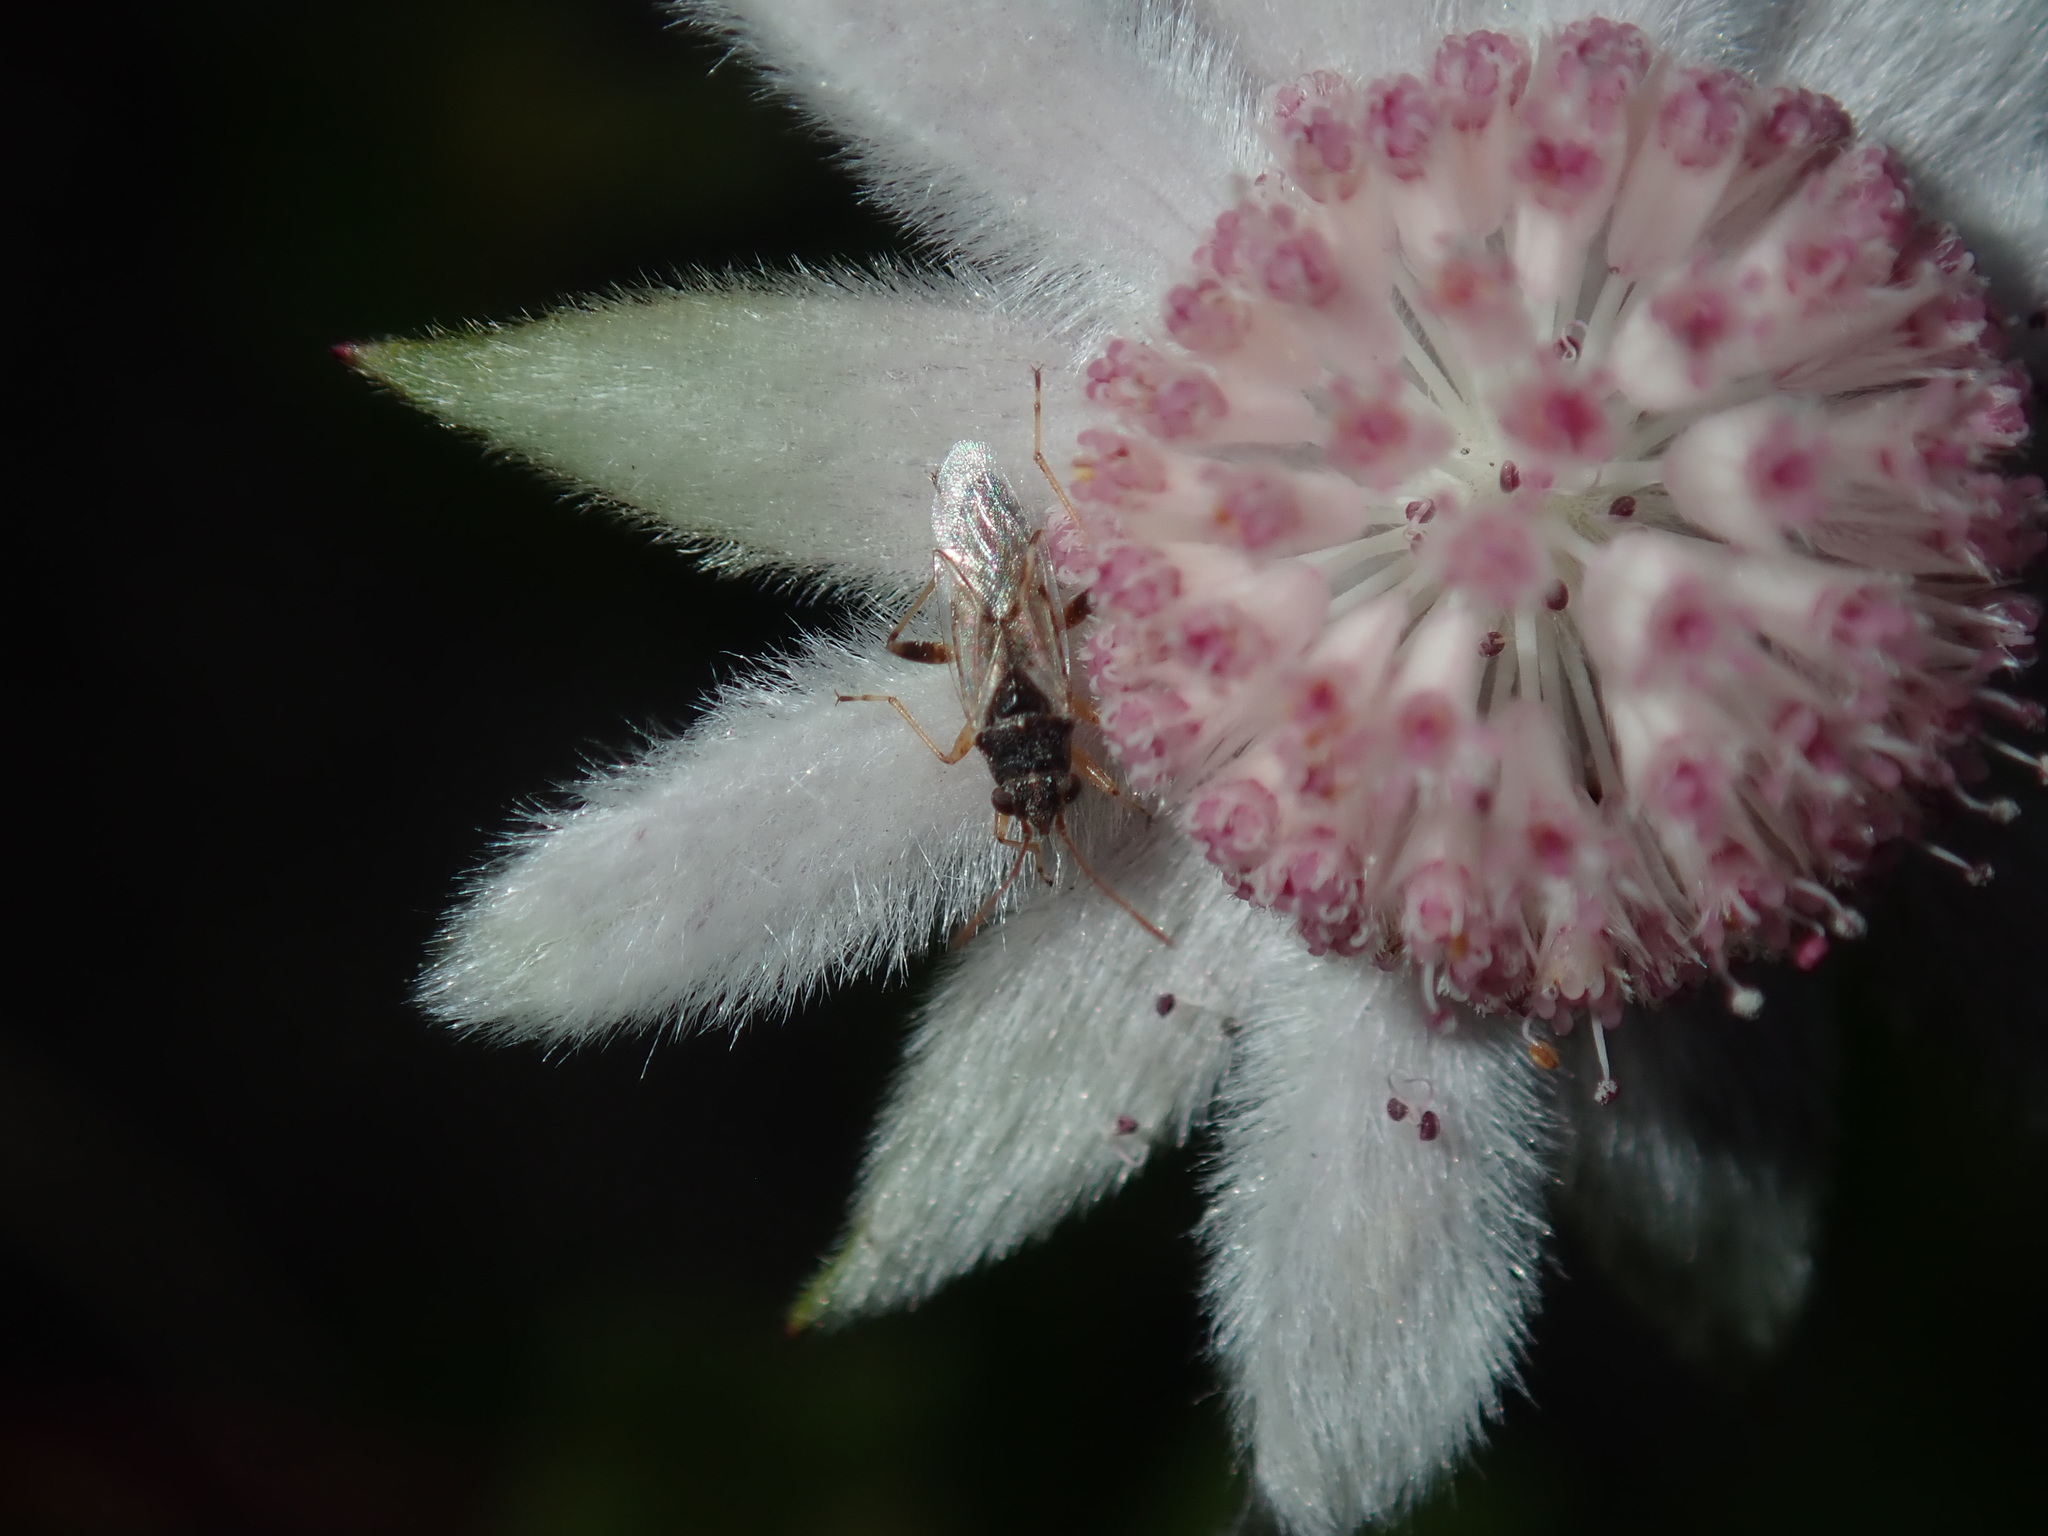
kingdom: Animalia
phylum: Arthropoda
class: Insecta
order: Hemiptera
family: Lygaeidae
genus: Nysius
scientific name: Nysius vinitor
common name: Lygaeid bug
